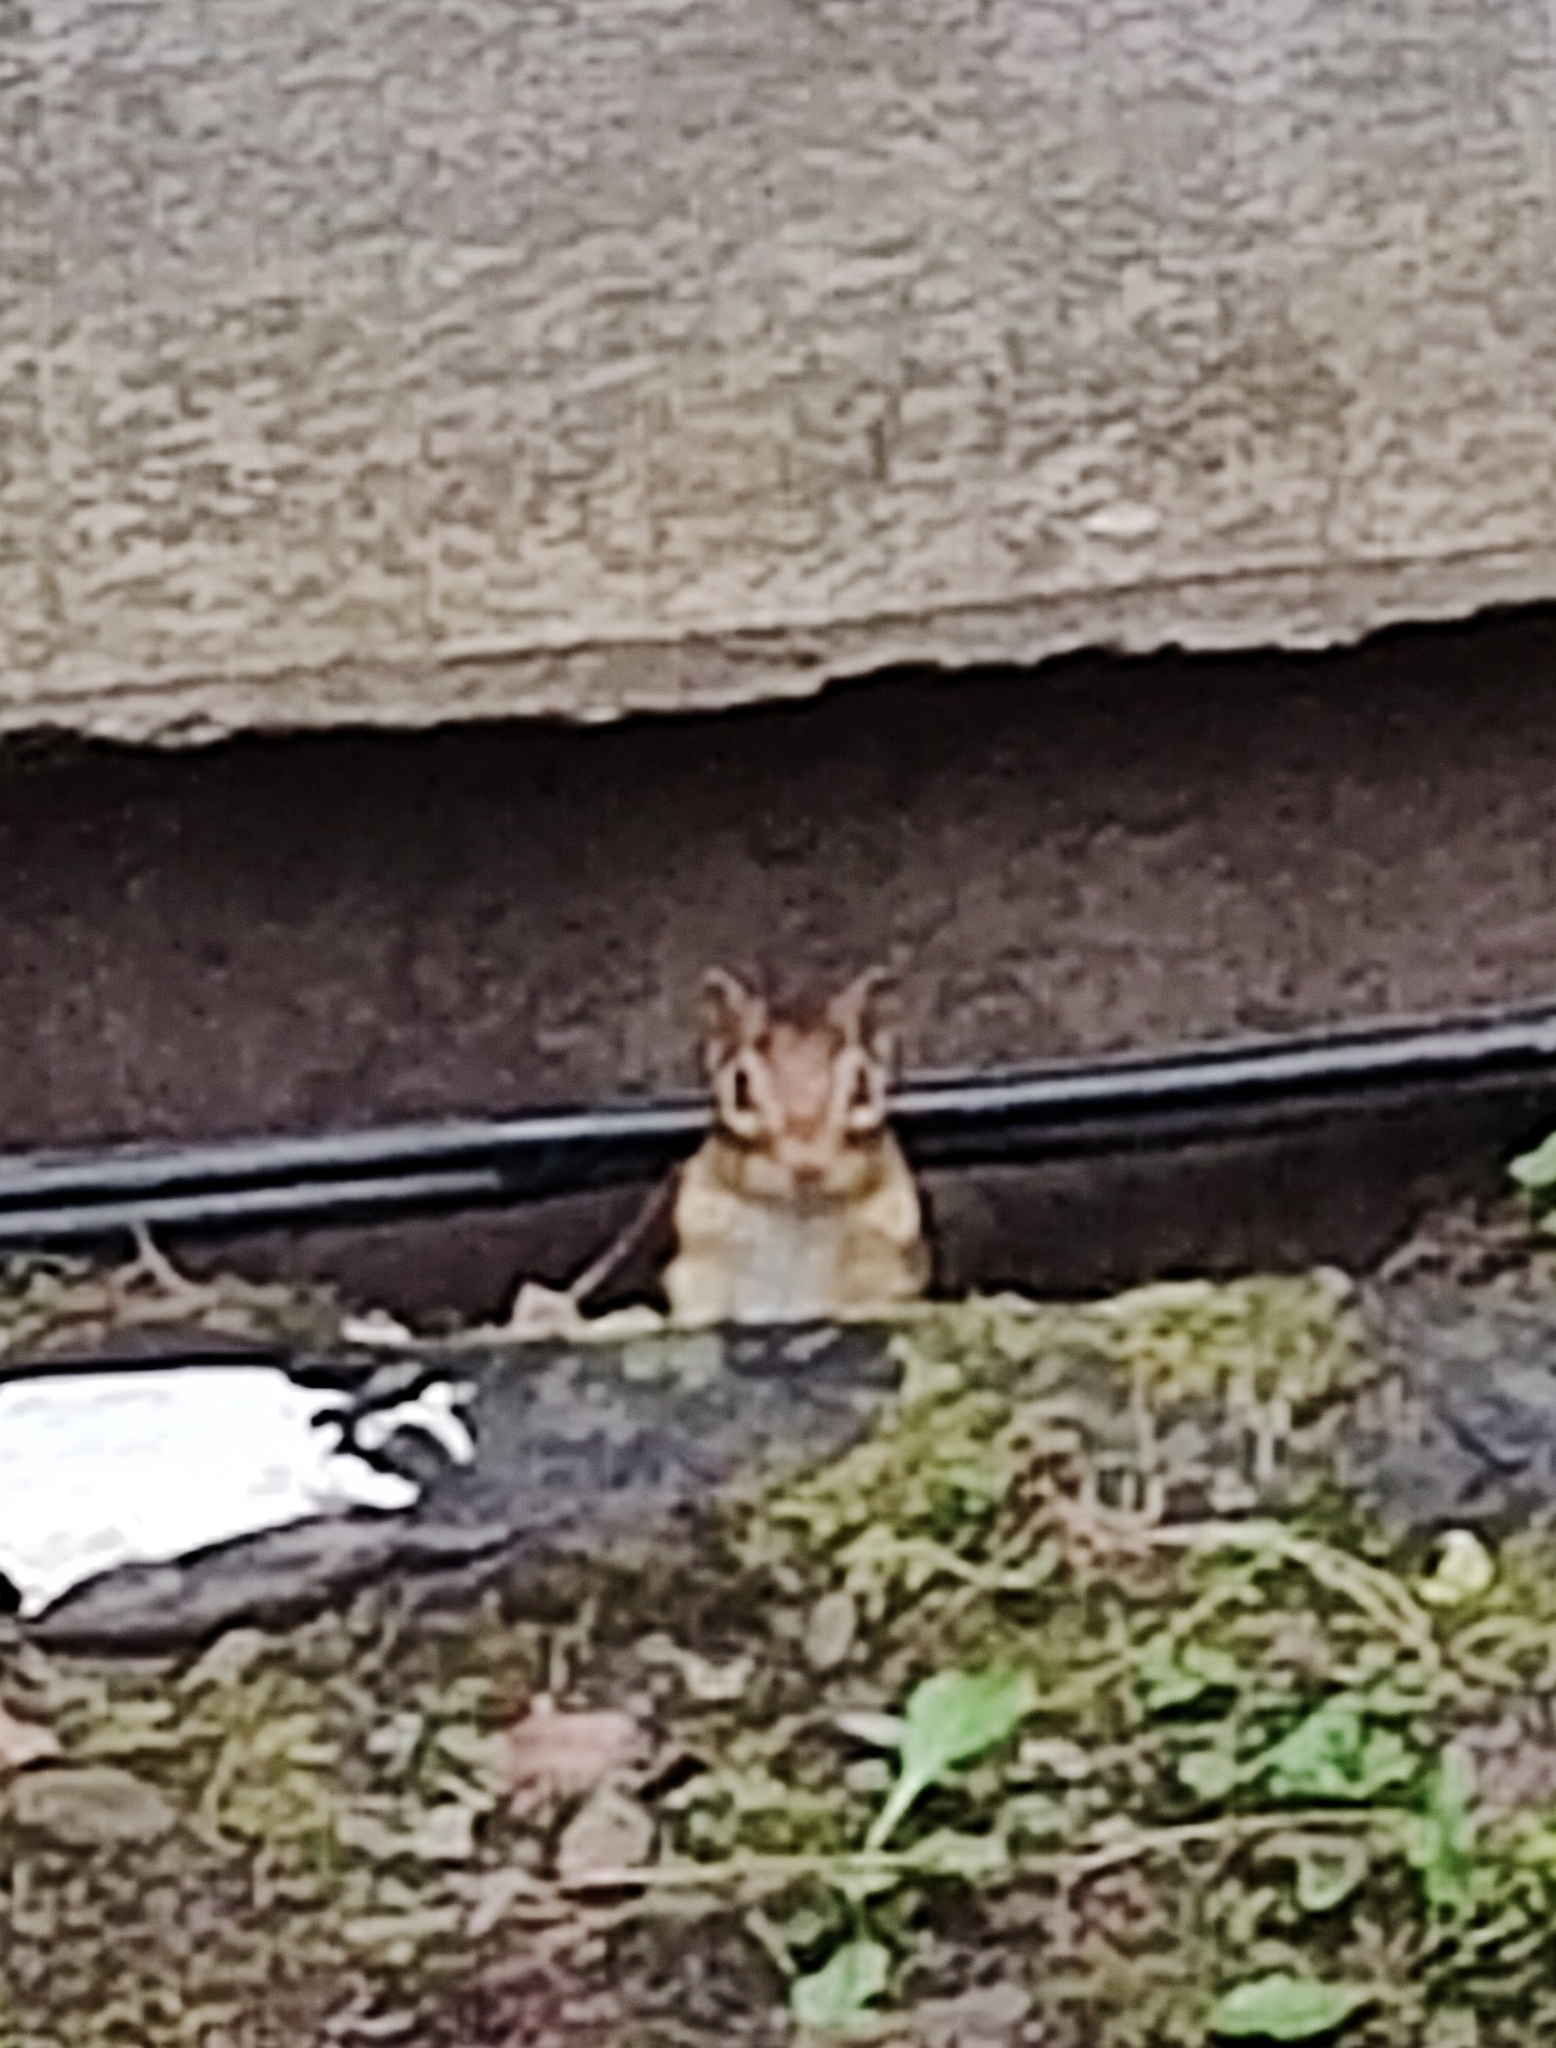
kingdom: Animalia
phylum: Chordata
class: Mammalia
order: Rodentia
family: Sciuridae
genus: Tamias
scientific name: Tamias striatus
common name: Eastern chipmunk
